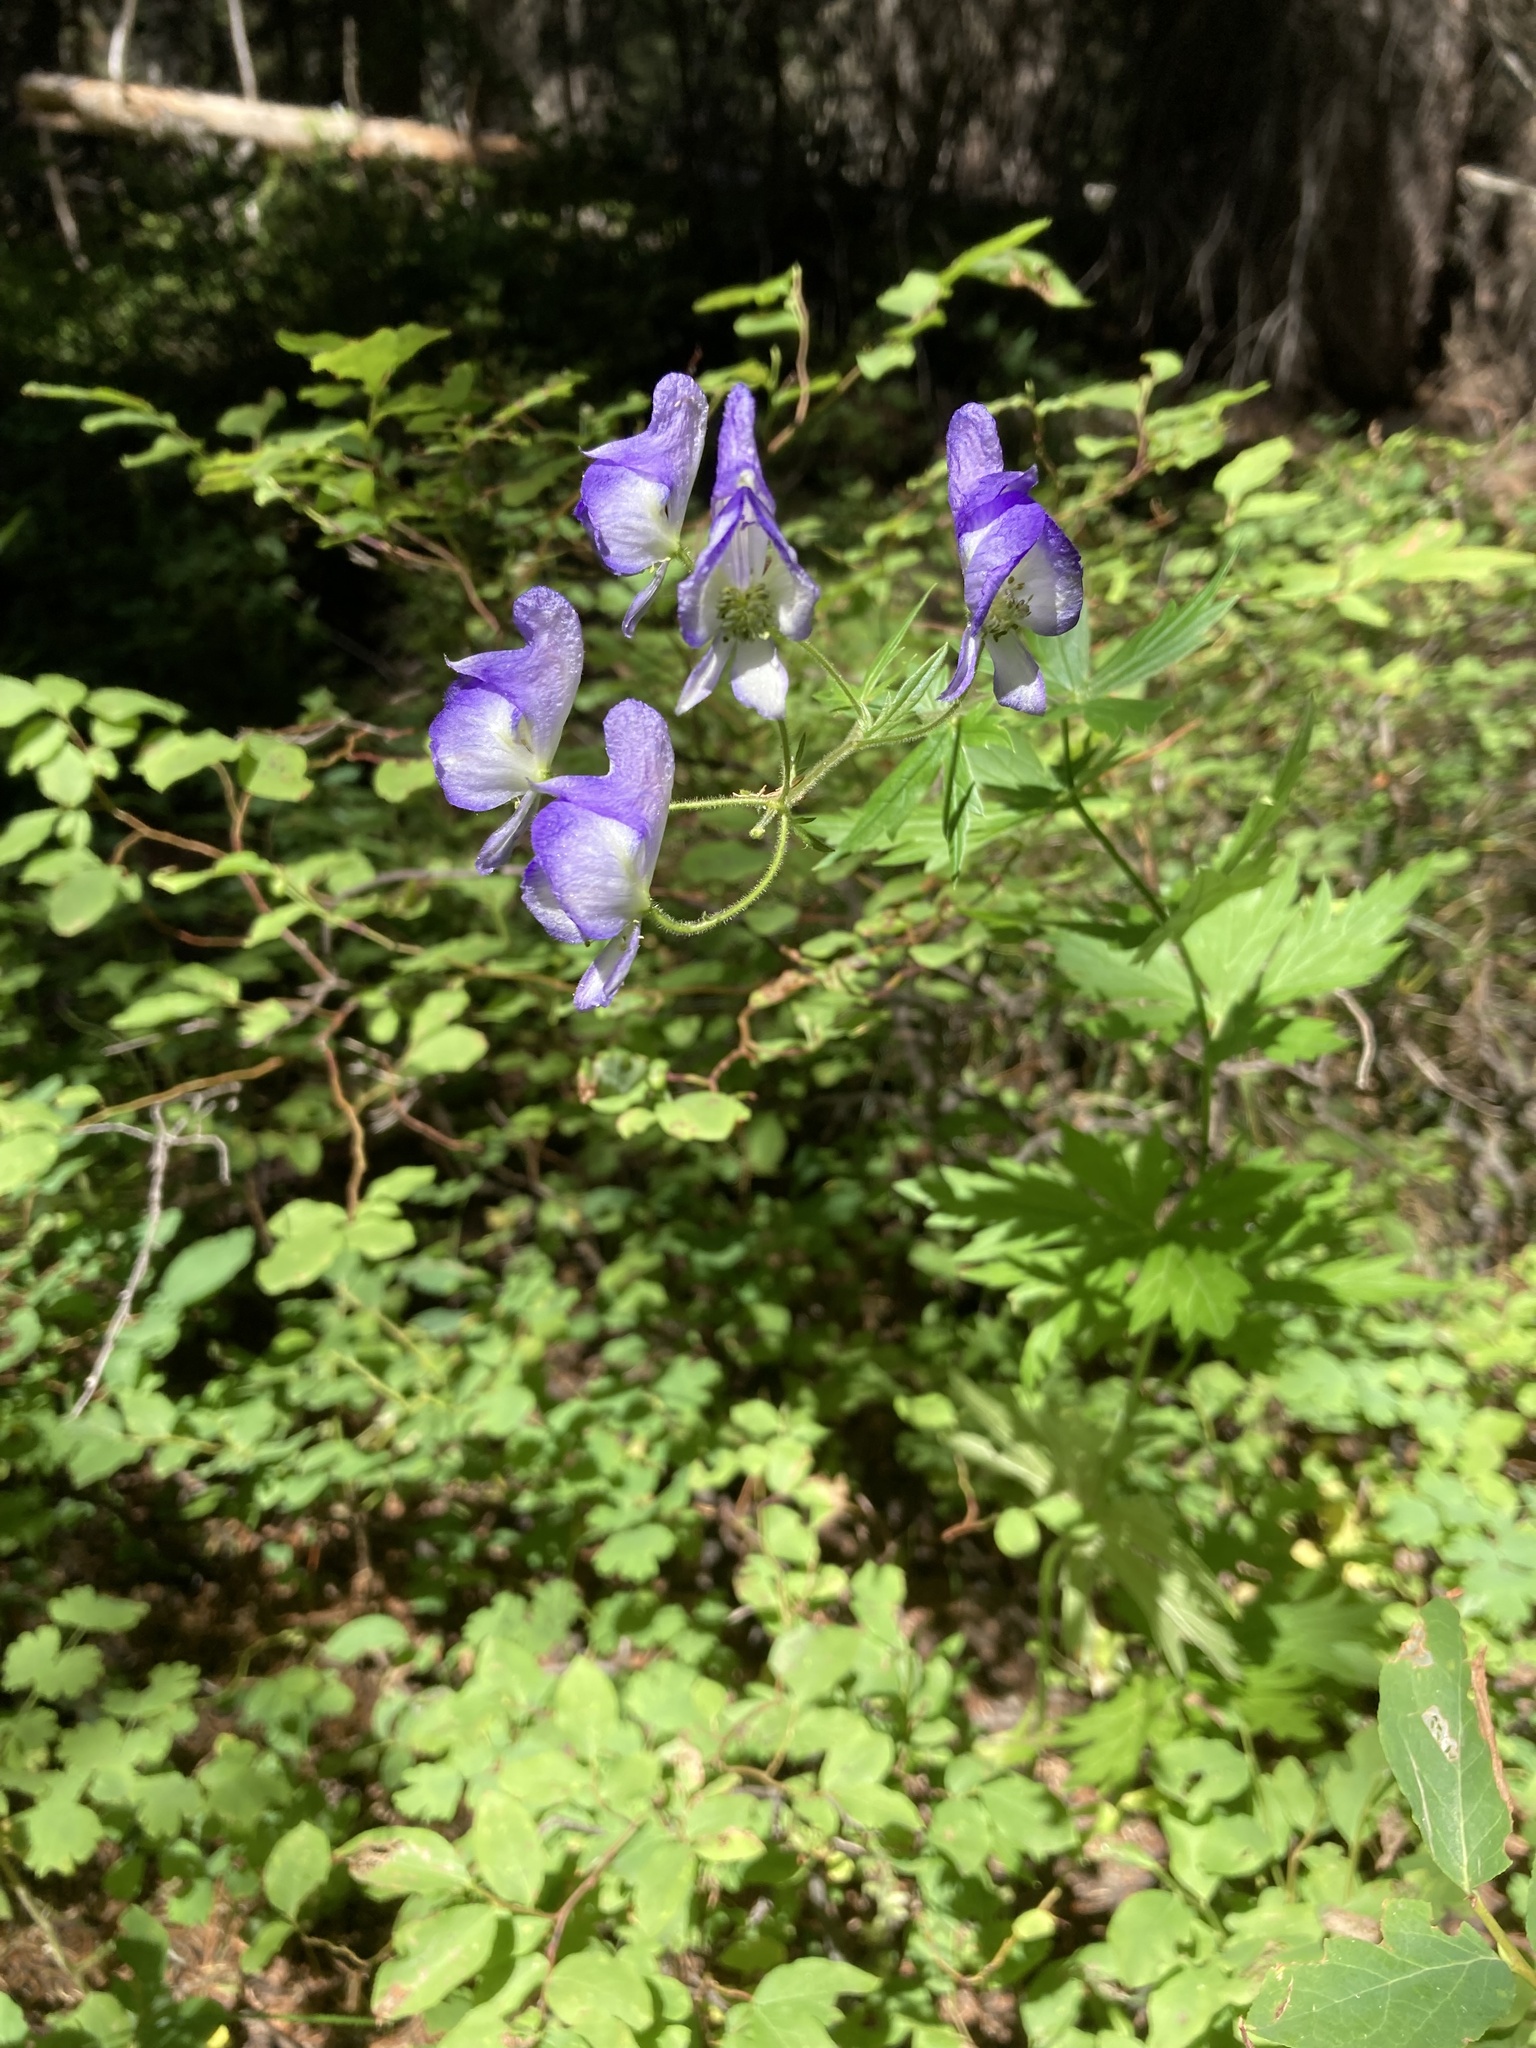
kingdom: Plantae
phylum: Tracheophyta
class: Magnoliopsida
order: Ranunculales
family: Ranunculaceae
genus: Aconitum
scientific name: Aconitum columbianum
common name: Columbia aconite
